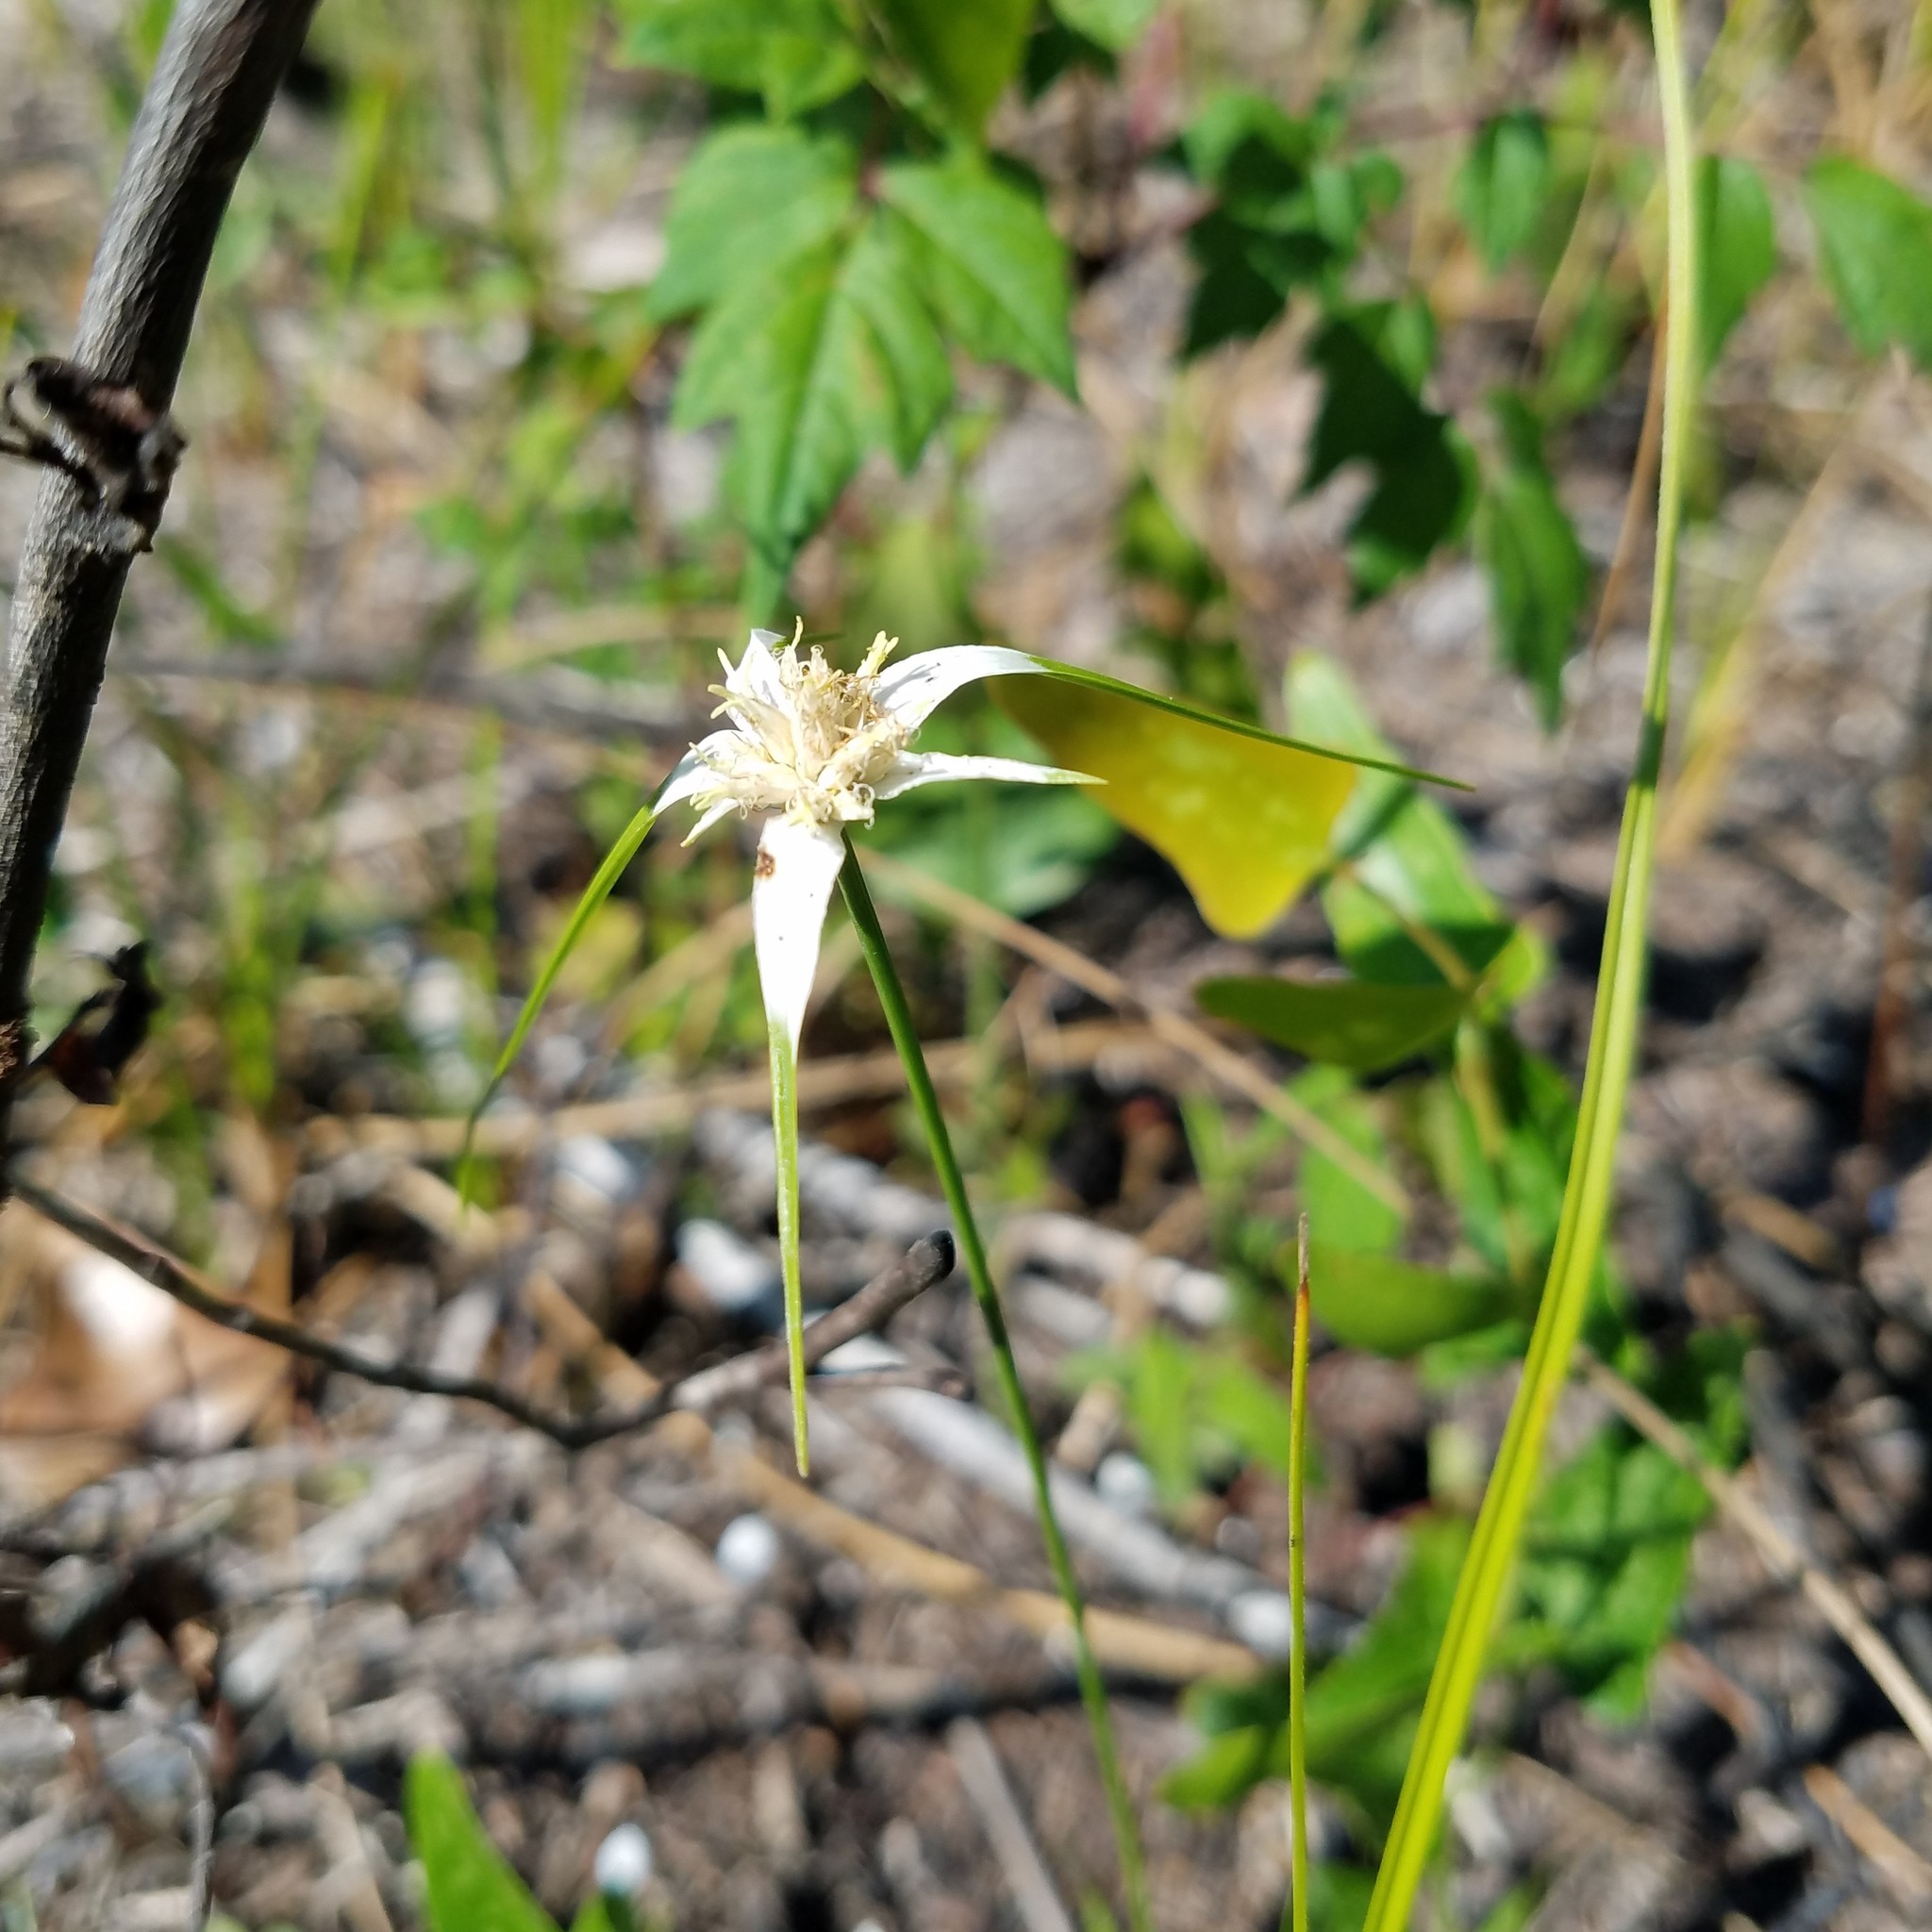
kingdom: Plantae
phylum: Tracheophyta
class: Liliopsida
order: Poales
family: Cyperaceae
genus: Rhynchospora
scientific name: Rhynchospora colorata
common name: Star sedge
